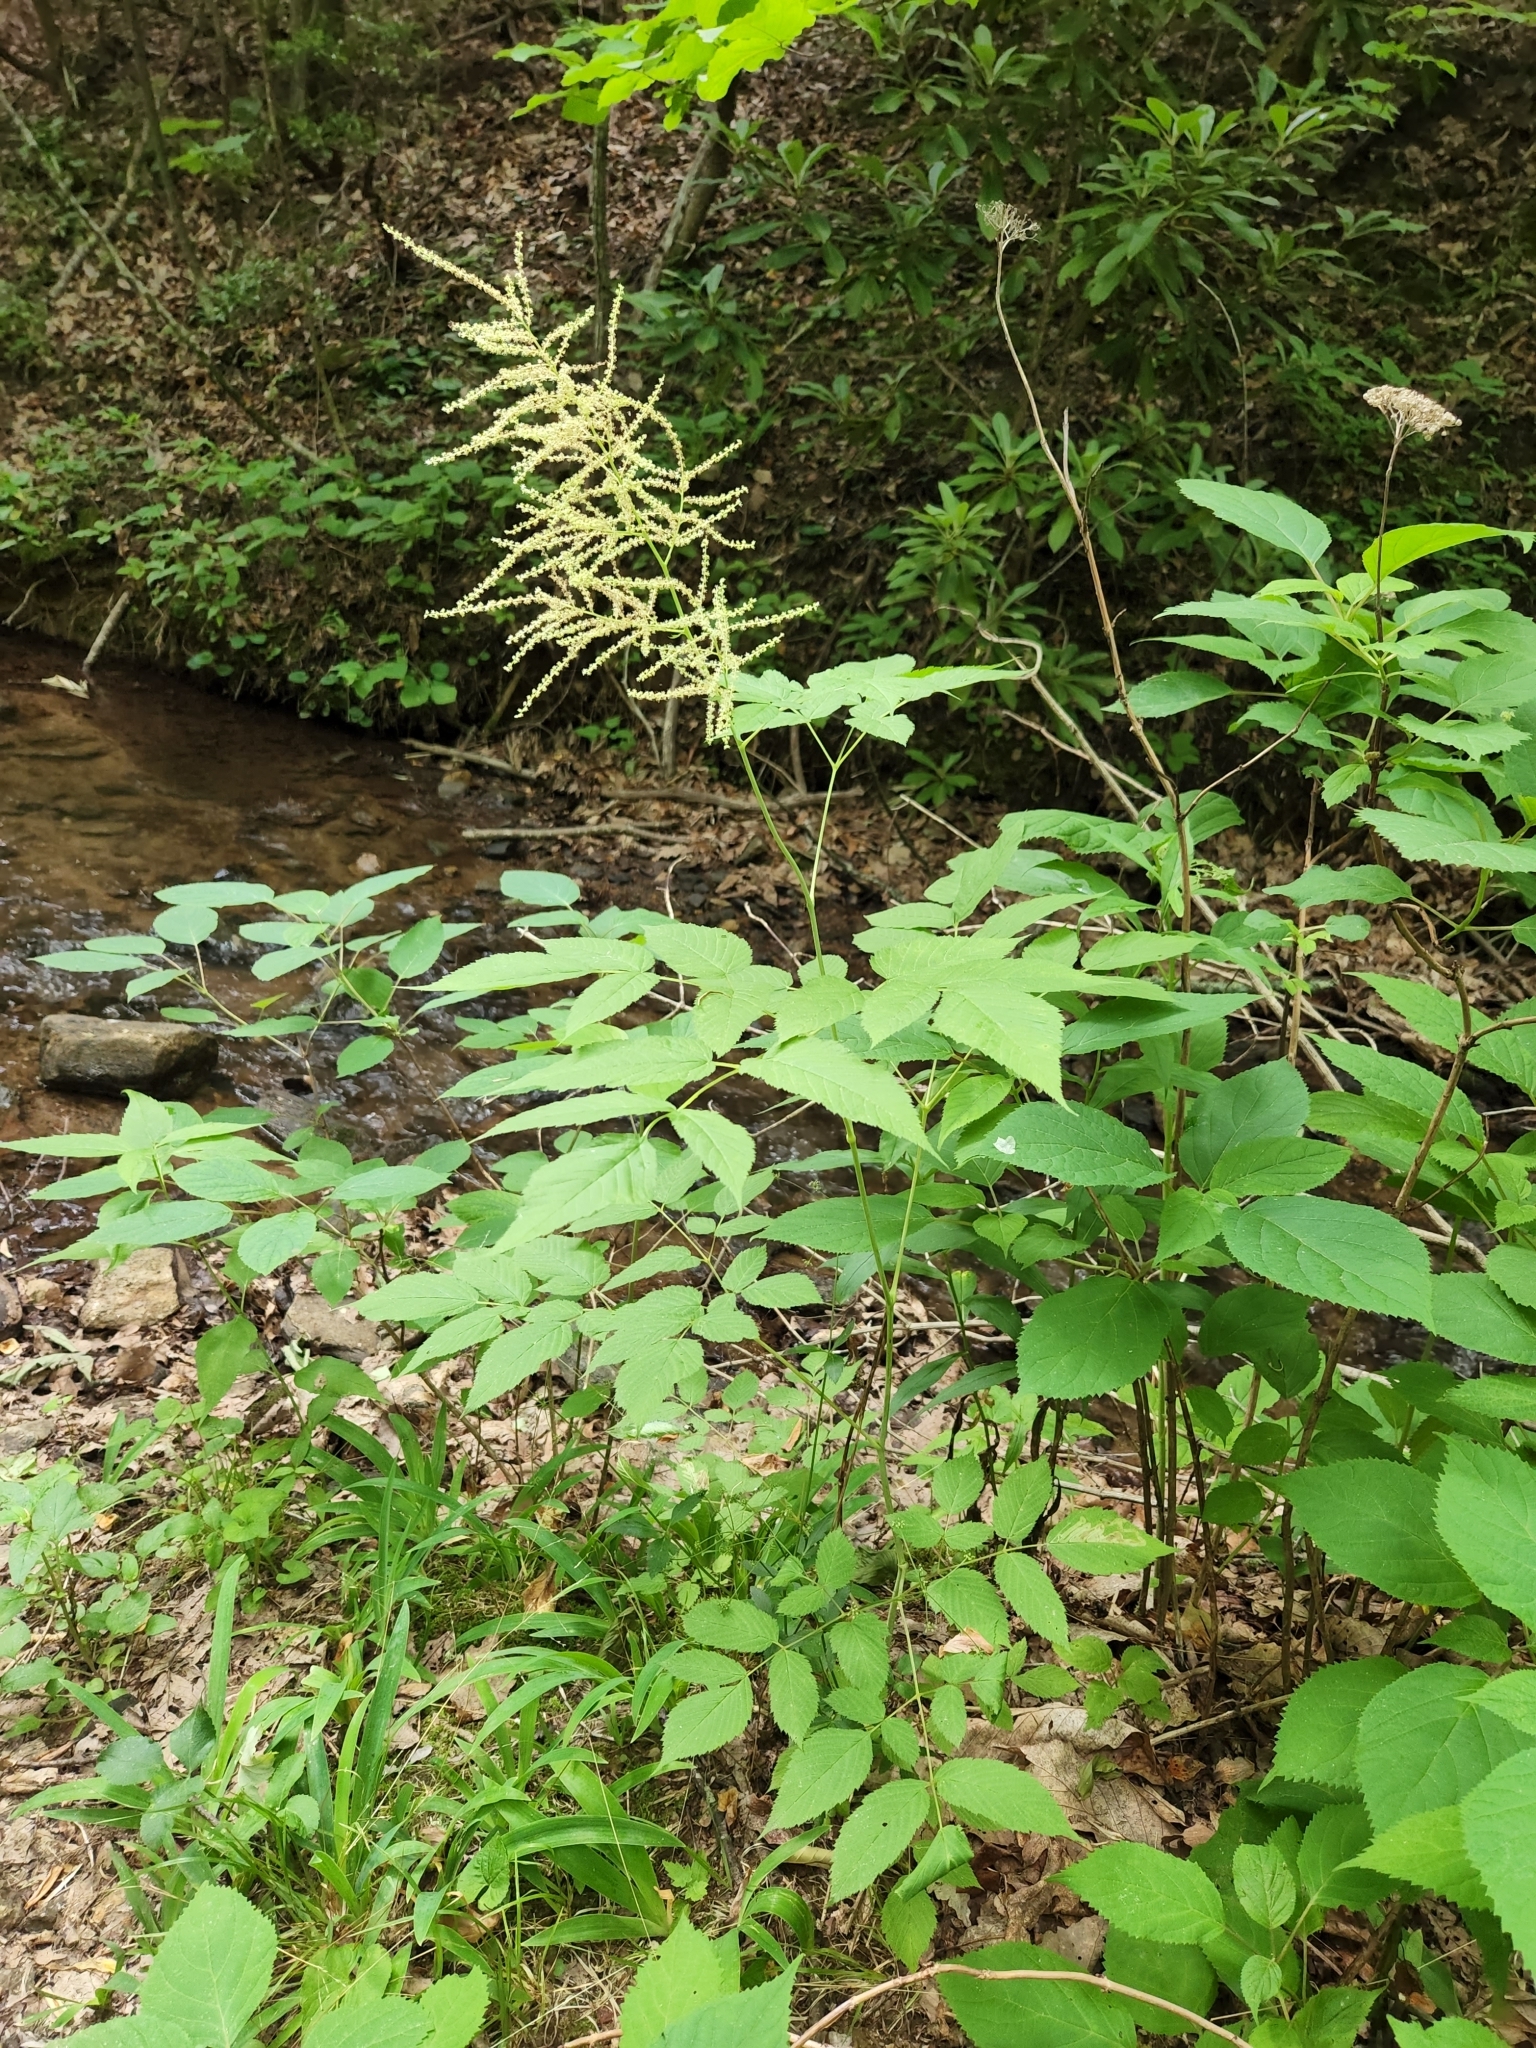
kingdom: Plantae
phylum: Tracheophyta
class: Magnoliopsida
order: Rosales
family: Rosaceae
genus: Aruncus
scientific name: Aruncus dioicus
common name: Buck's-beard
